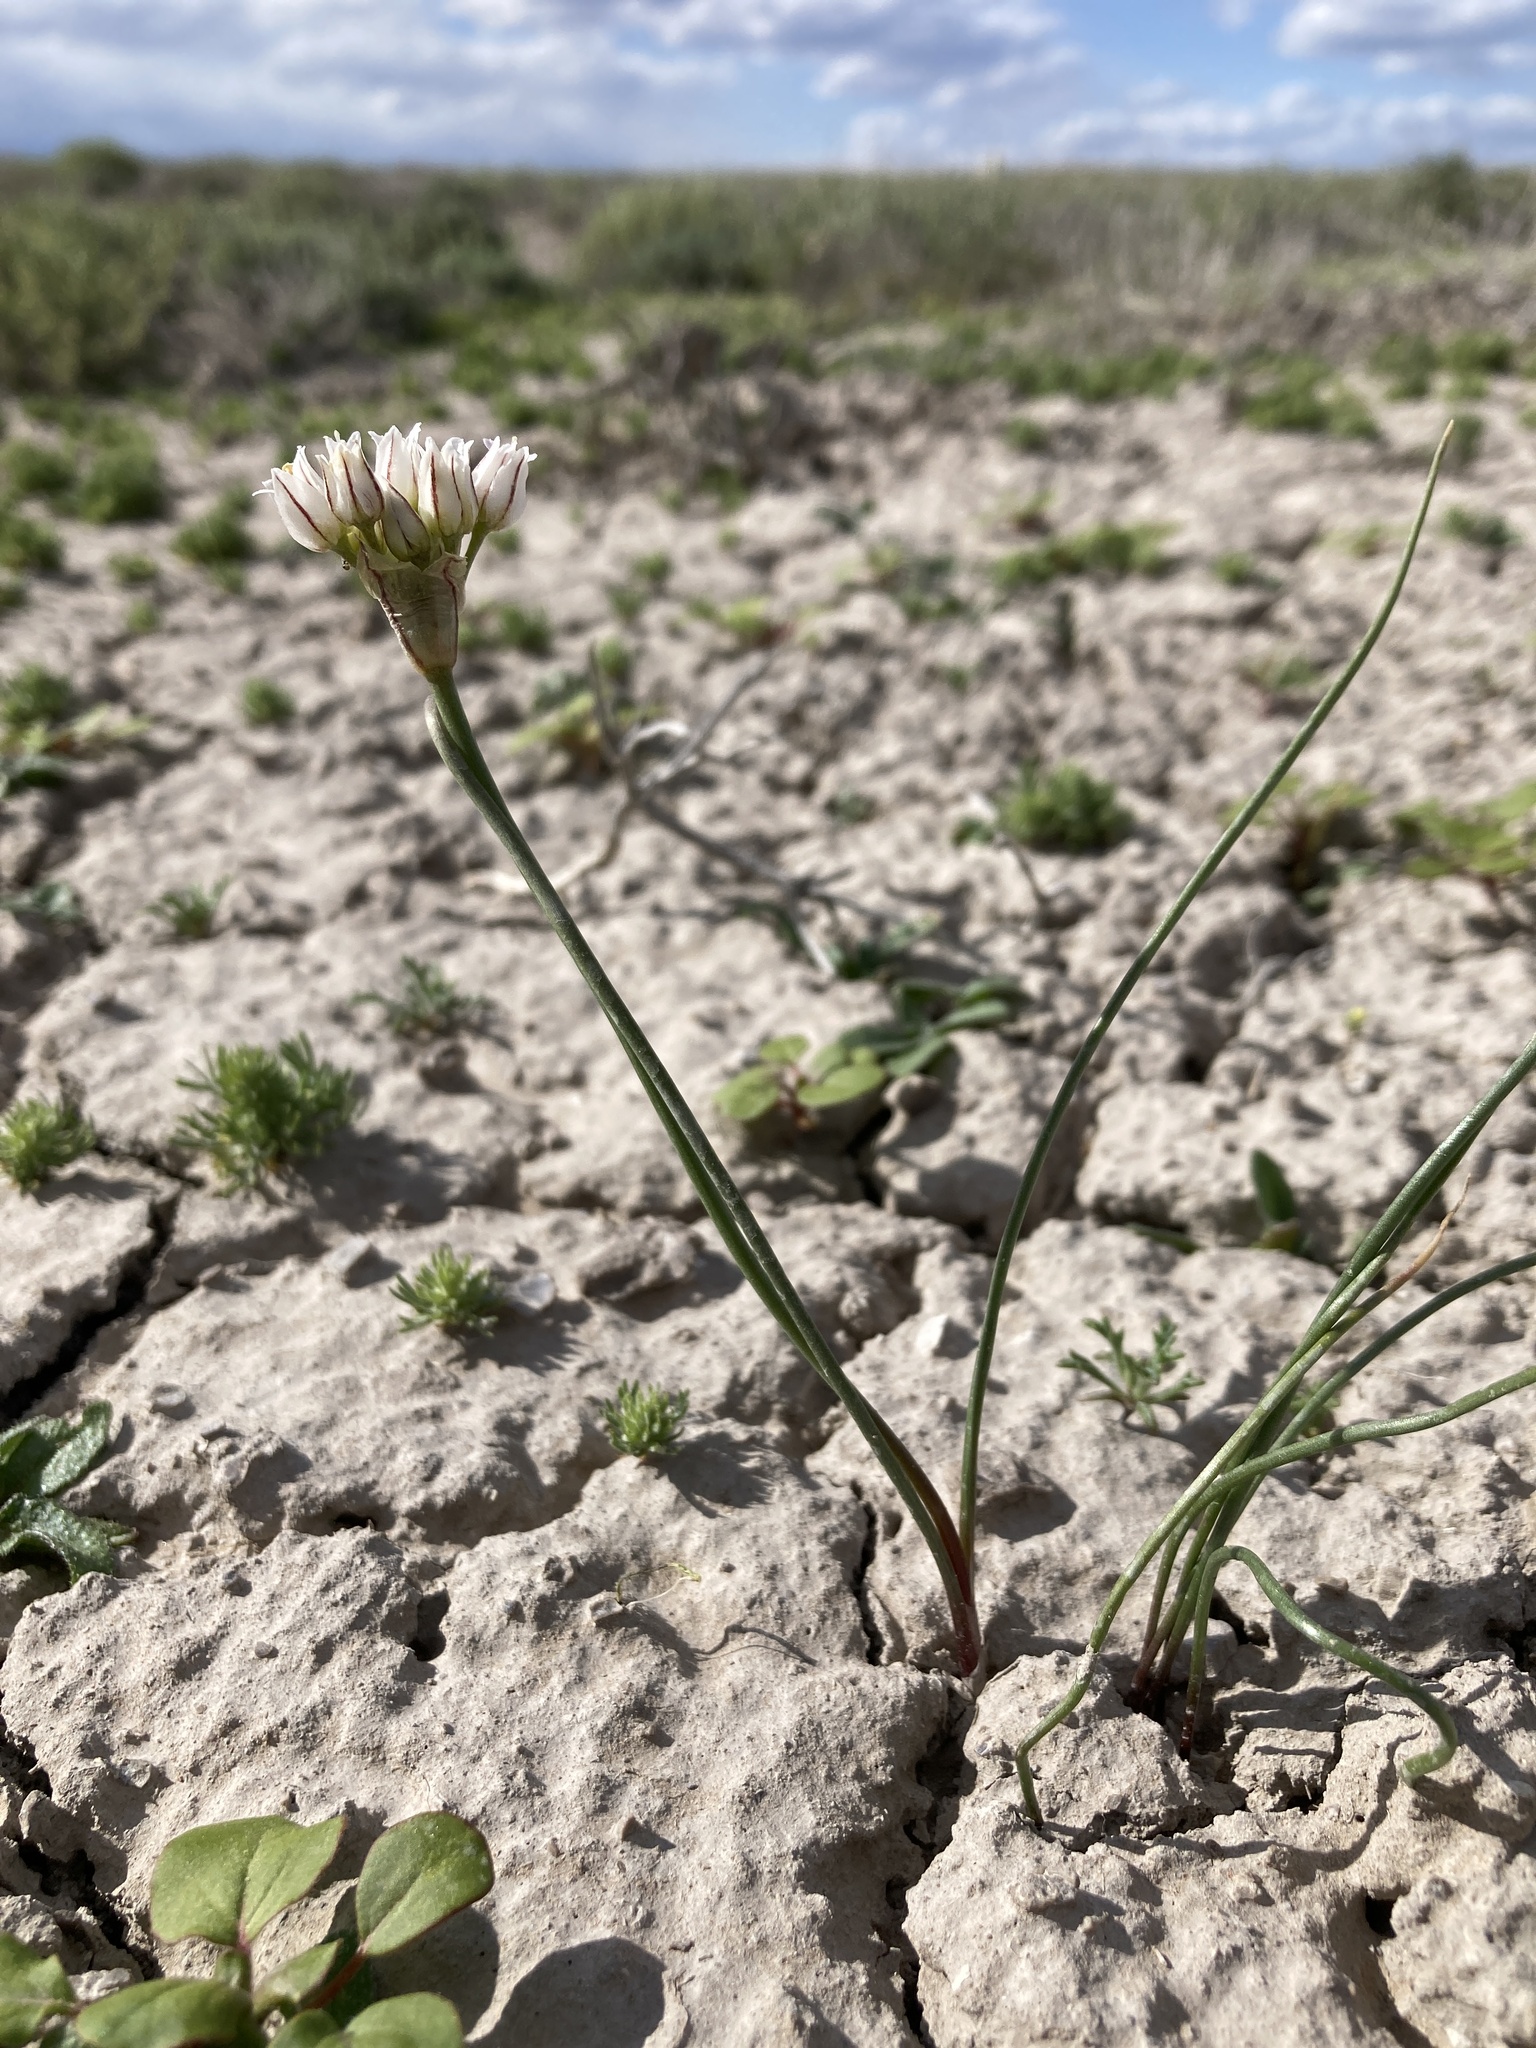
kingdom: Plantae
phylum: Tracheophyta
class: Liliopsida
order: Asparagales
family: Amaryllidaceae
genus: Allium
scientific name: Allium textile
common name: Prairie onion
